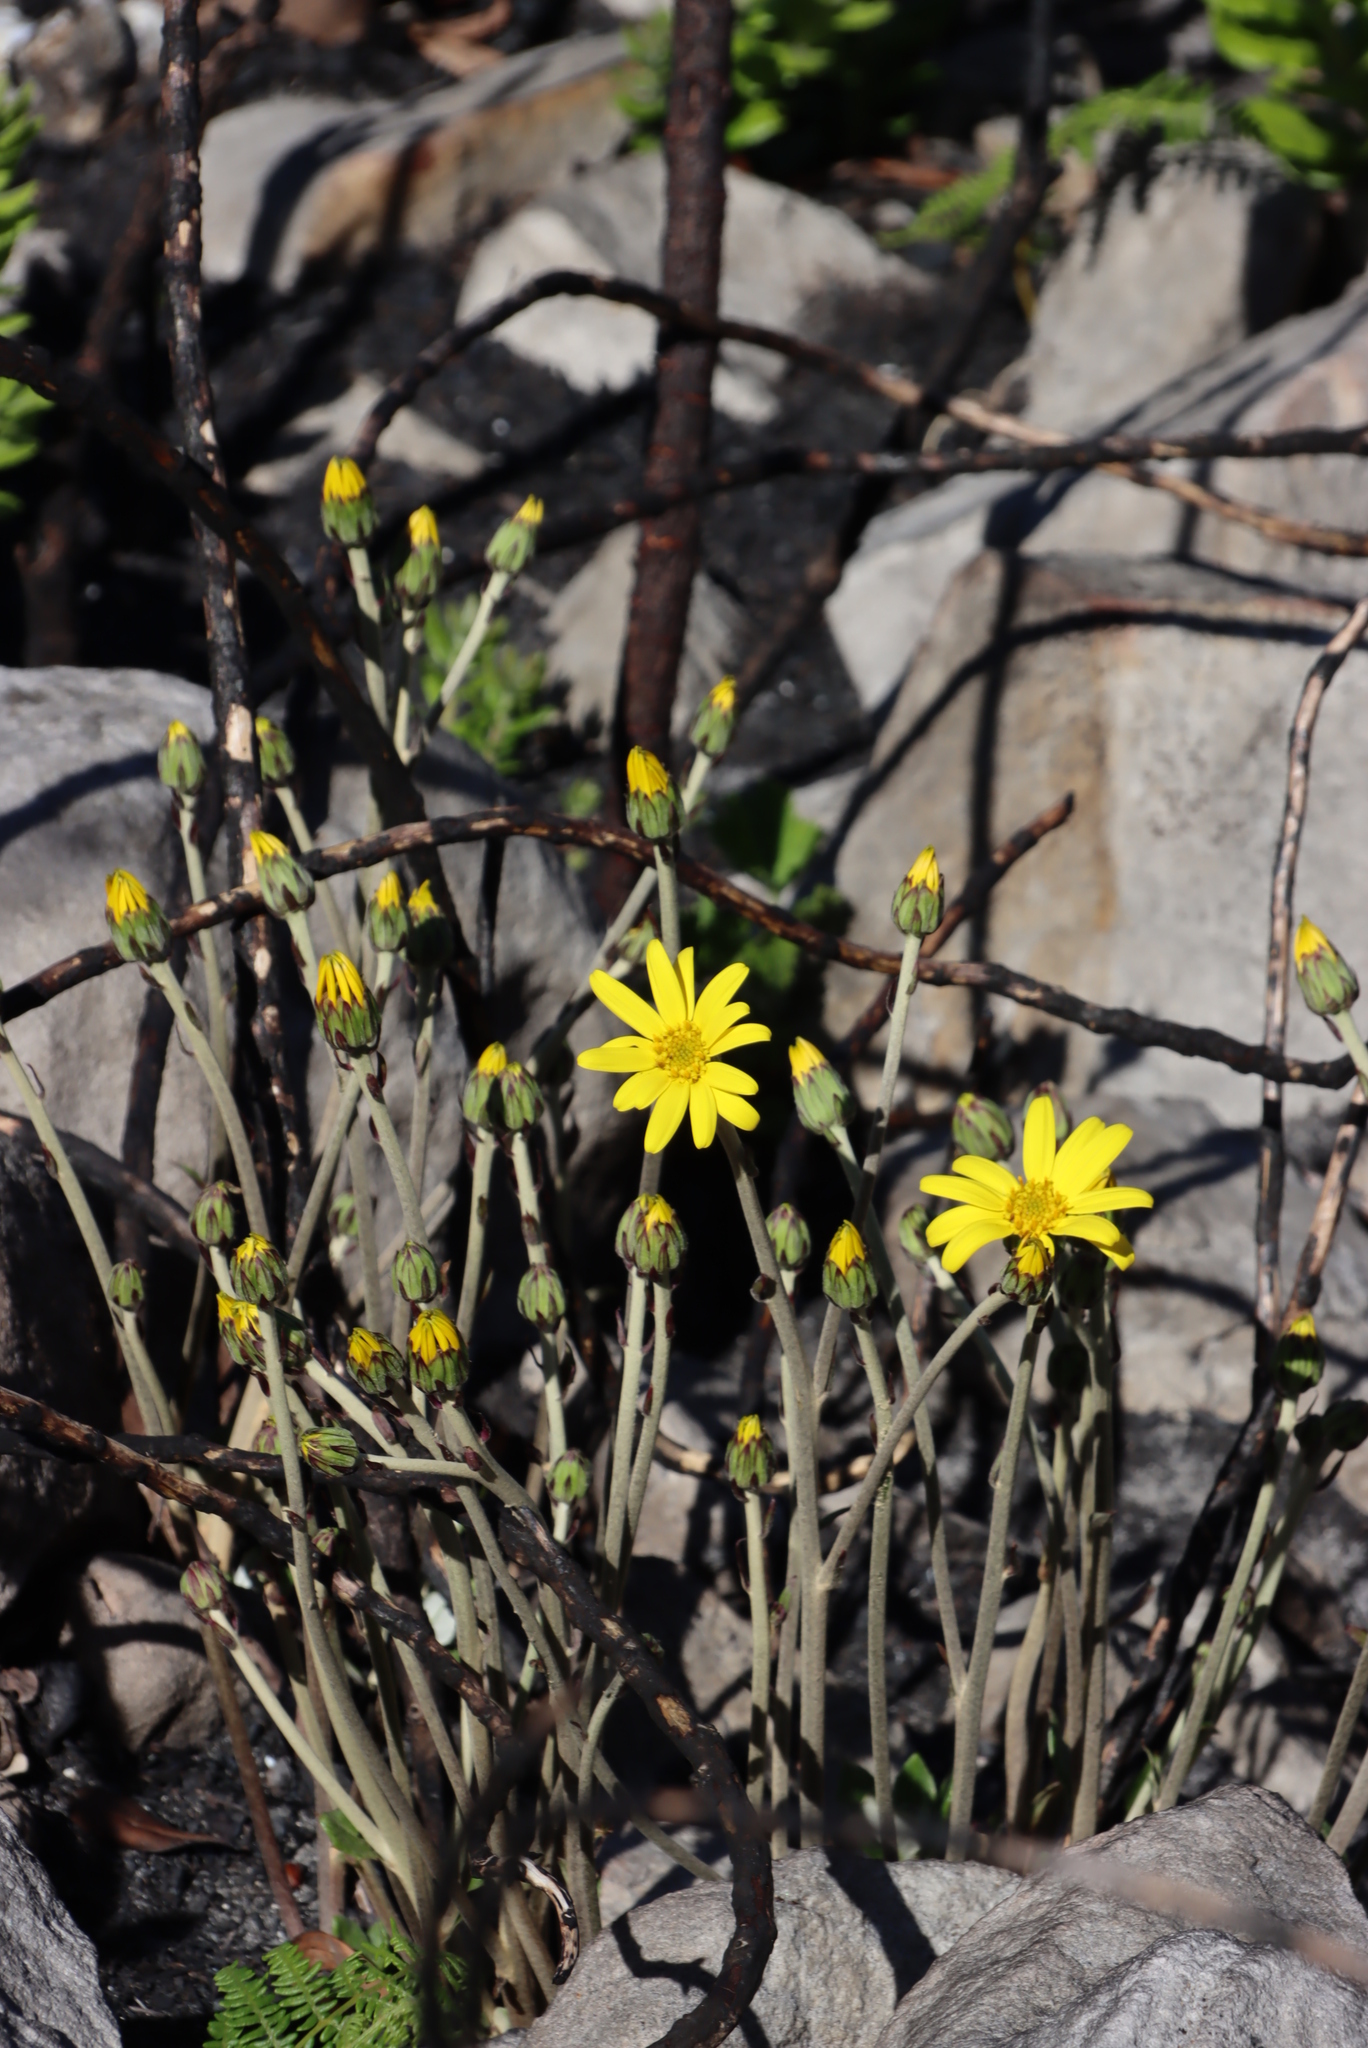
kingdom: Plantae
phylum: Tracheophyta
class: Magnoliopsida
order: Asterales
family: Asteraceae
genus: Capelio
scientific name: Capelio tabularis
